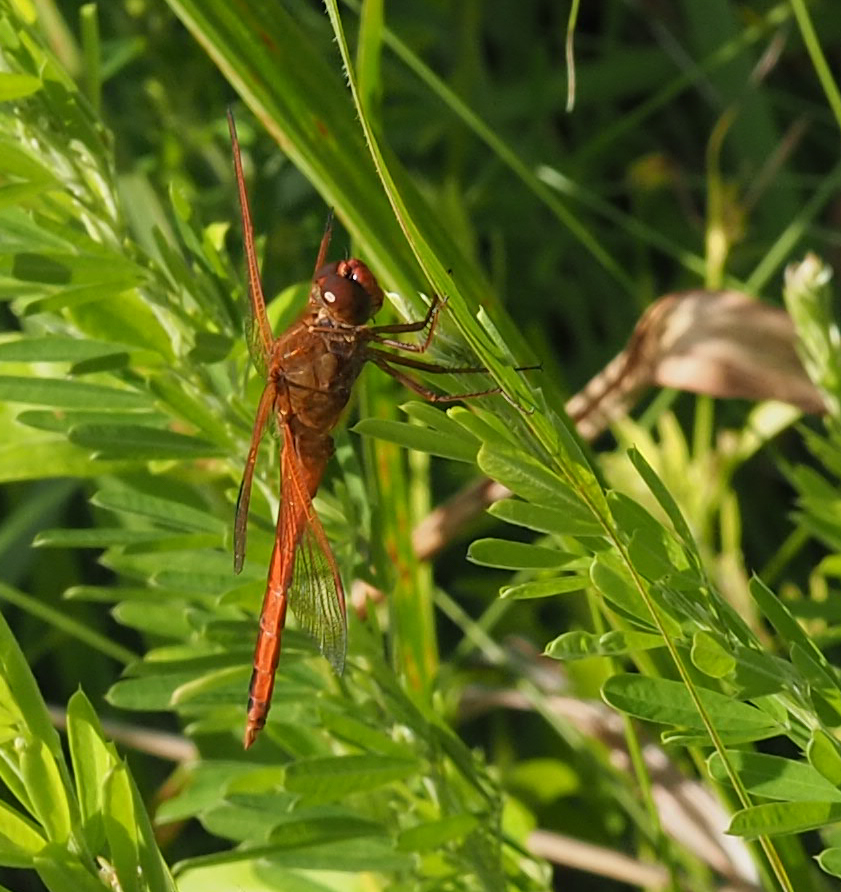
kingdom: Animalia
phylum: Arthropoda
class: Insecta
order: Odonata
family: Libellulidae
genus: Libellula
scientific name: Libellula needhami
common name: Needham's skimmer
